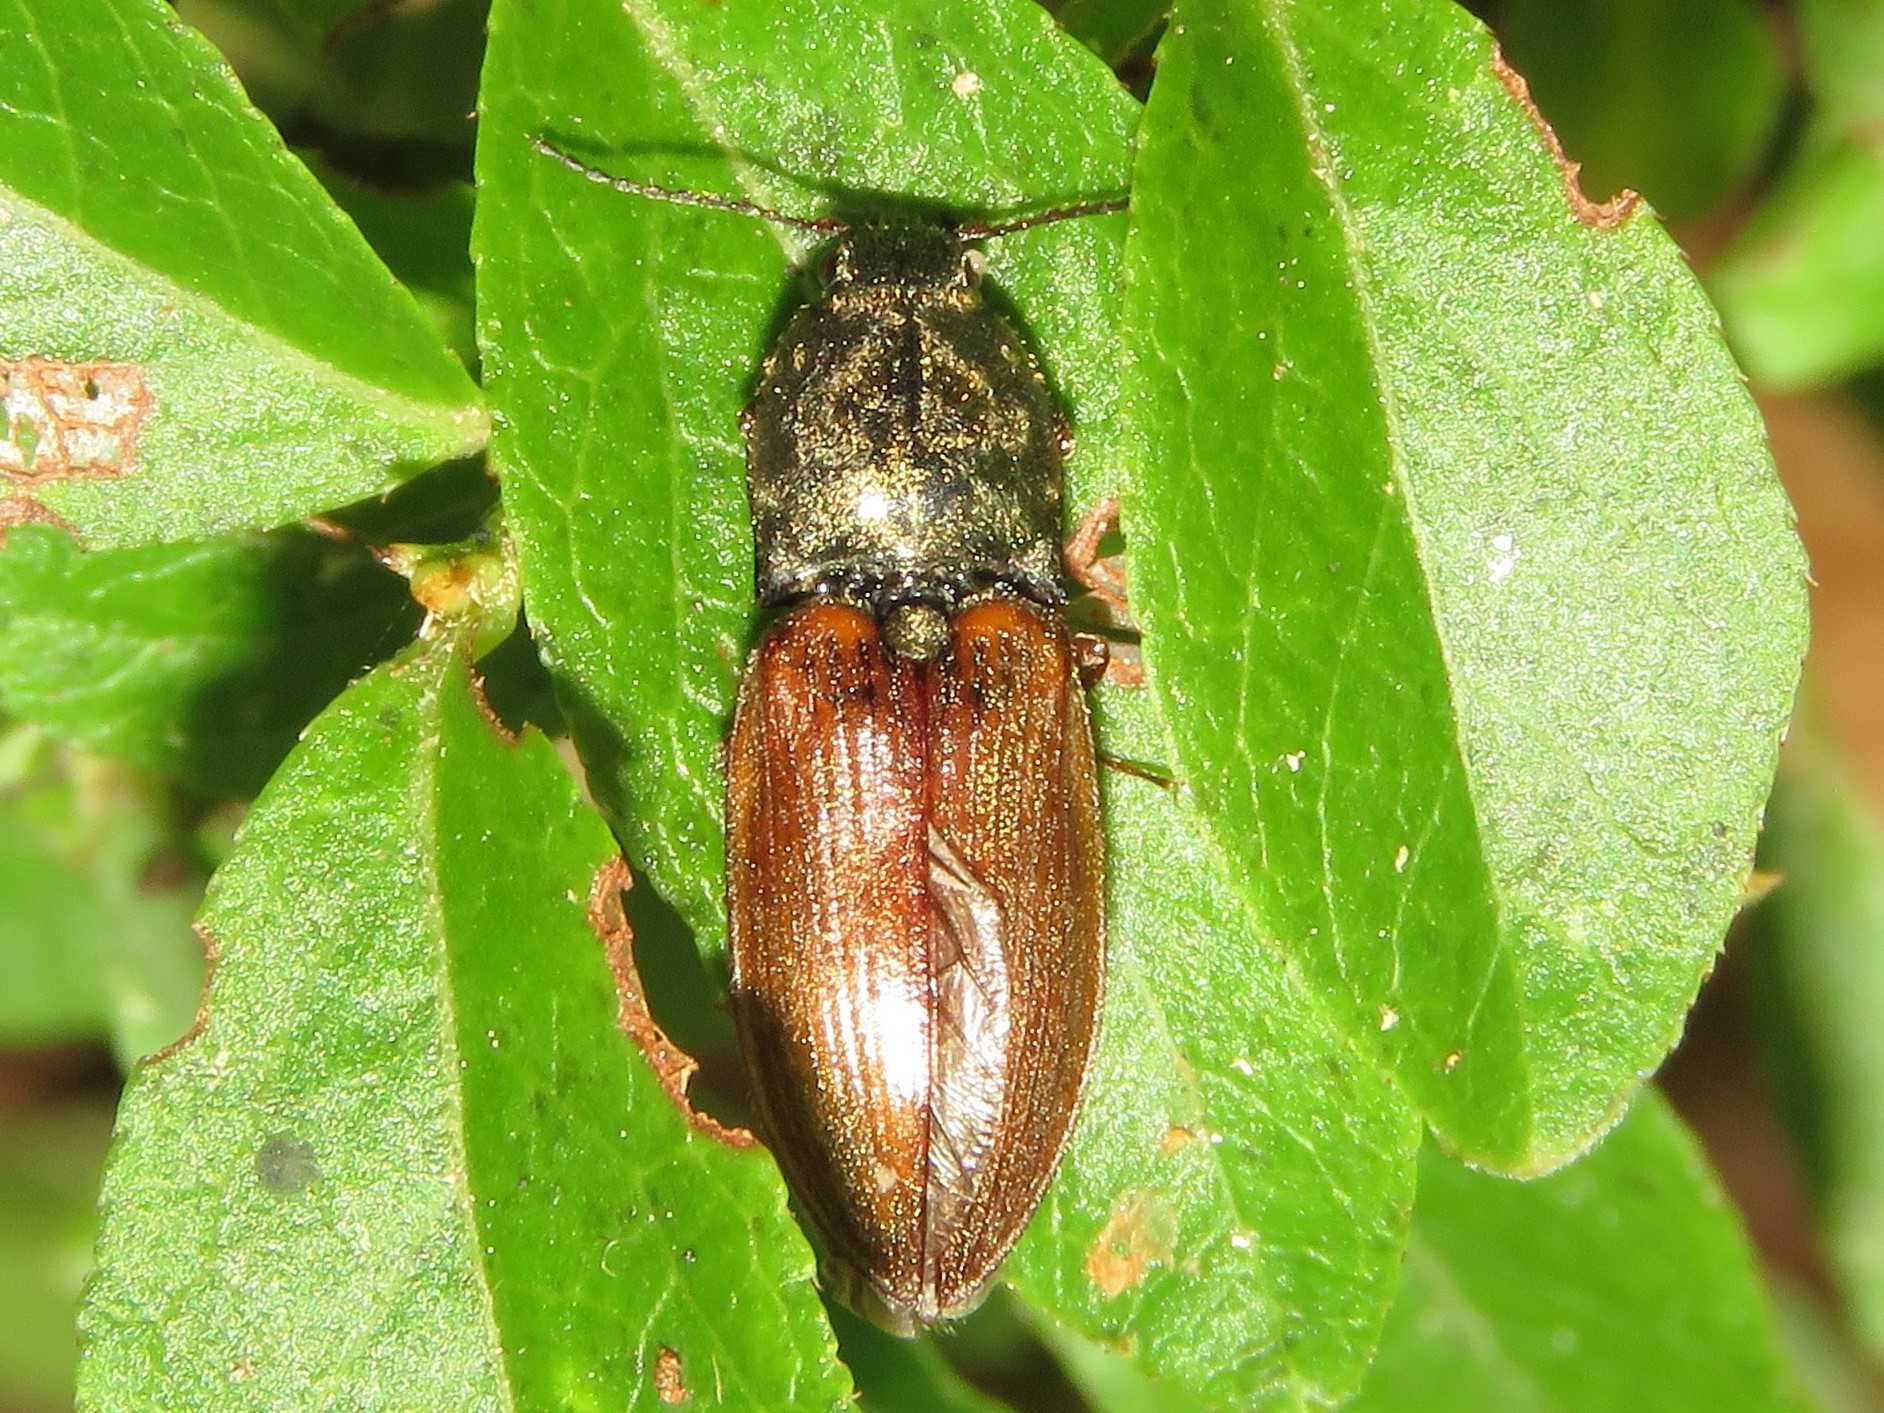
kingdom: Animalia
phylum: Arthropoda
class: Insecta
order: Coleoptera
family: Elateridae
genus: Prosternon
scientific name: Prosternon medianum
